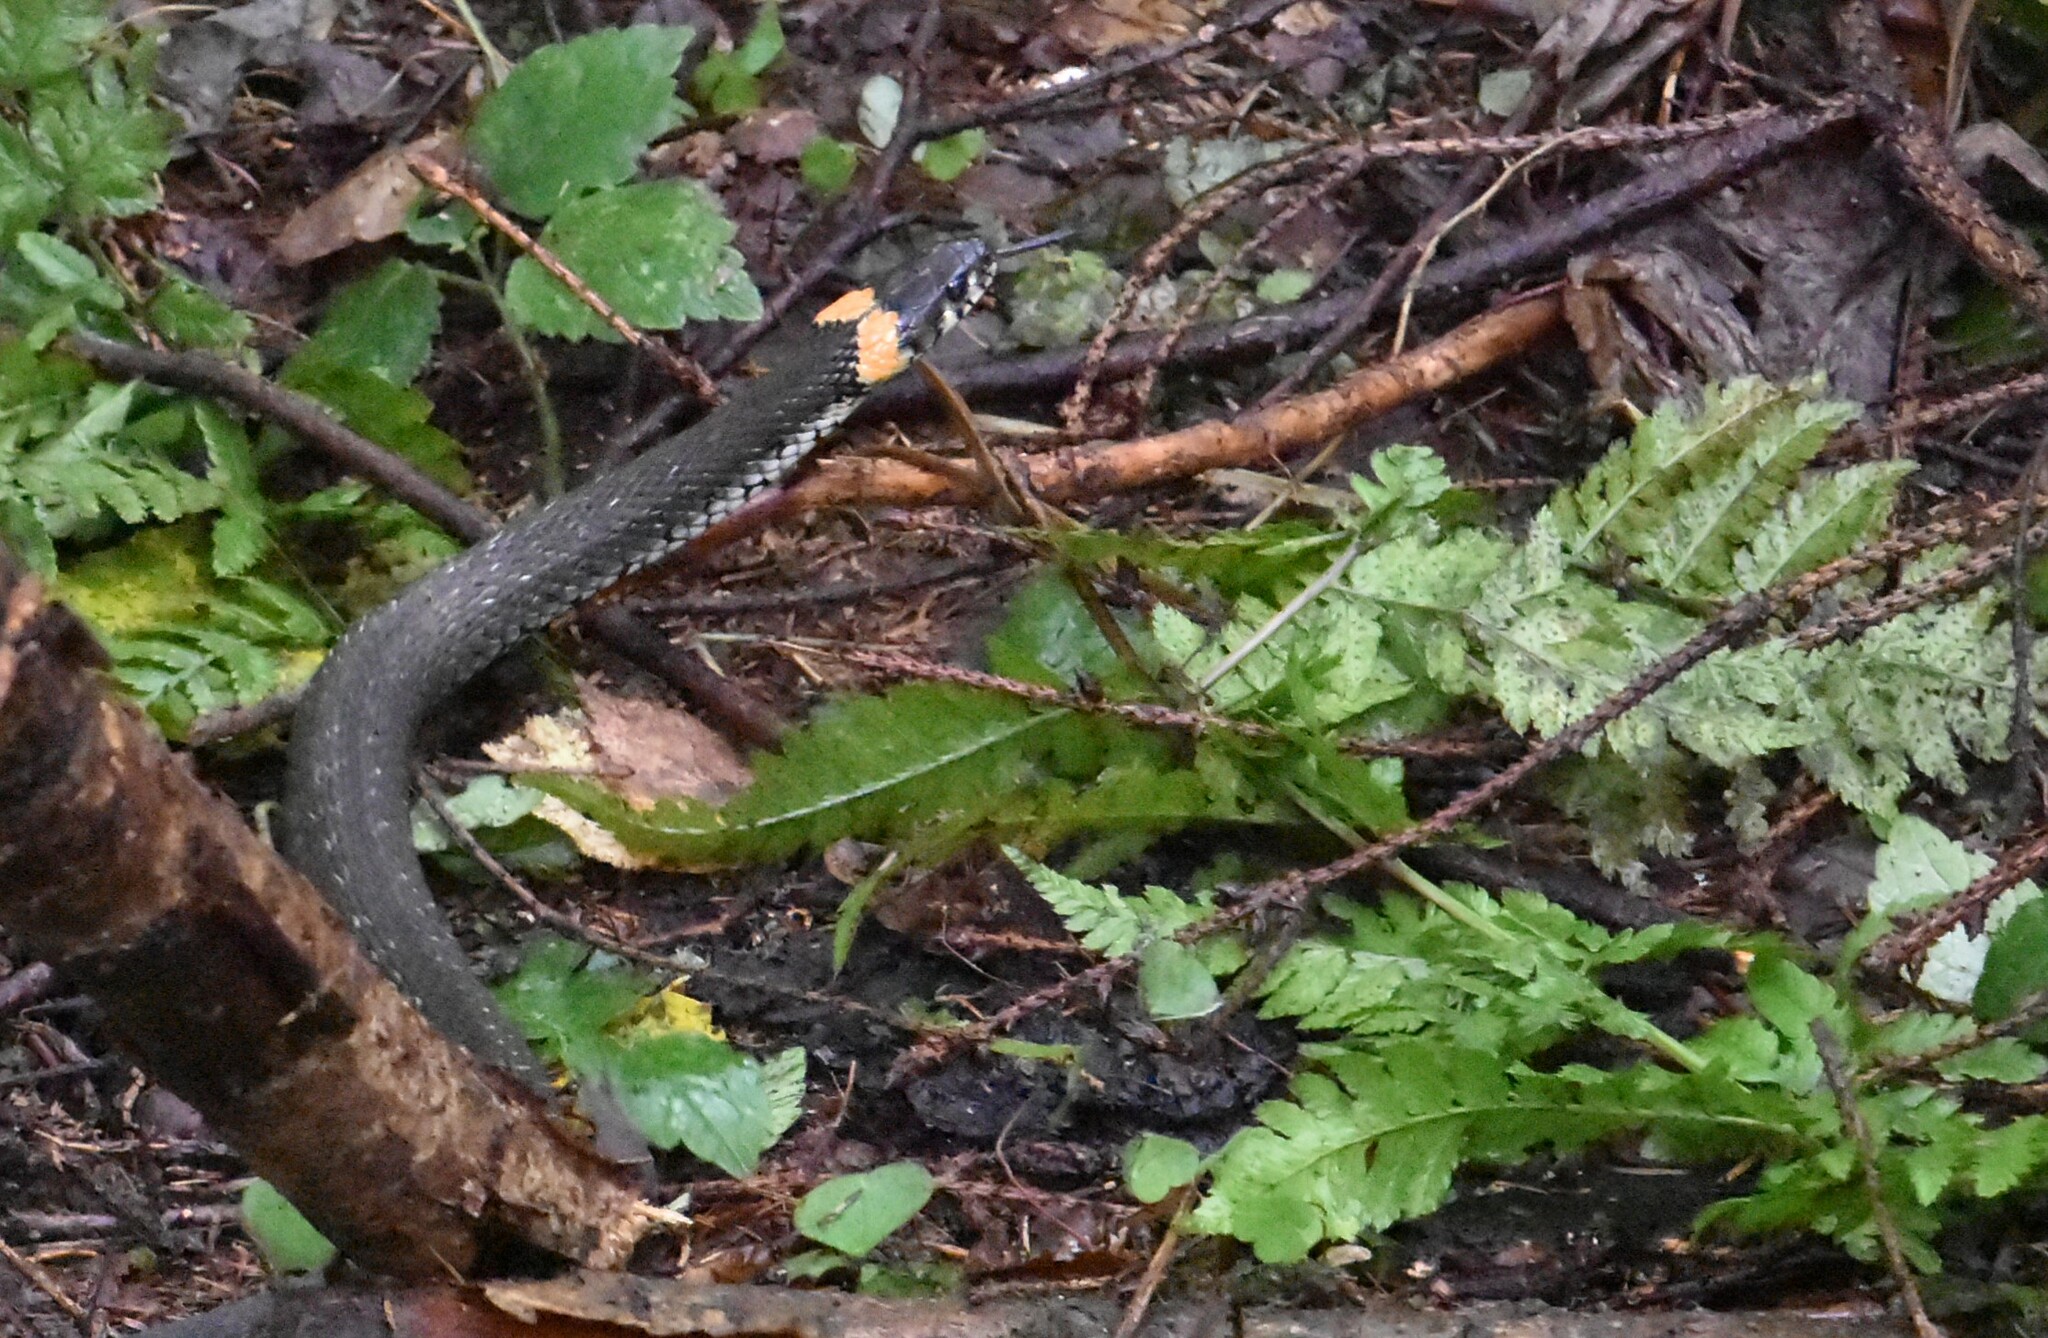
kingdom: Animalia
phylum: Chordata
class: Squamata
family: Colubridae
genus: Natrix
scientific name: Natrix natrix
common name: Grass snake
